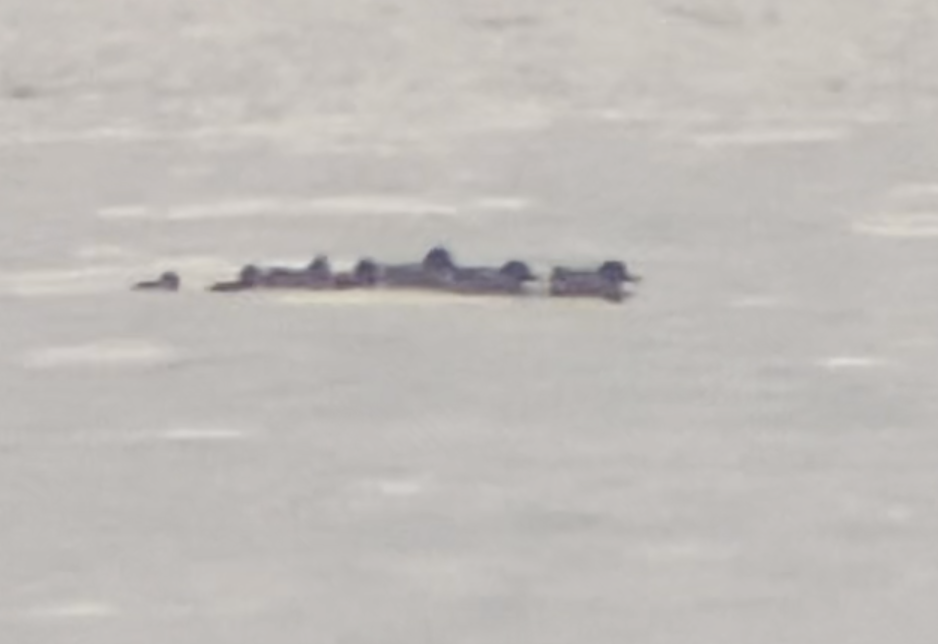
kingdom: Animalia
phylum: Chordata
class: Aves
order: Anseriformes
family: Anatidae
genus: Anas
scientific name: Anas crecca
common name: Eurasian teal
